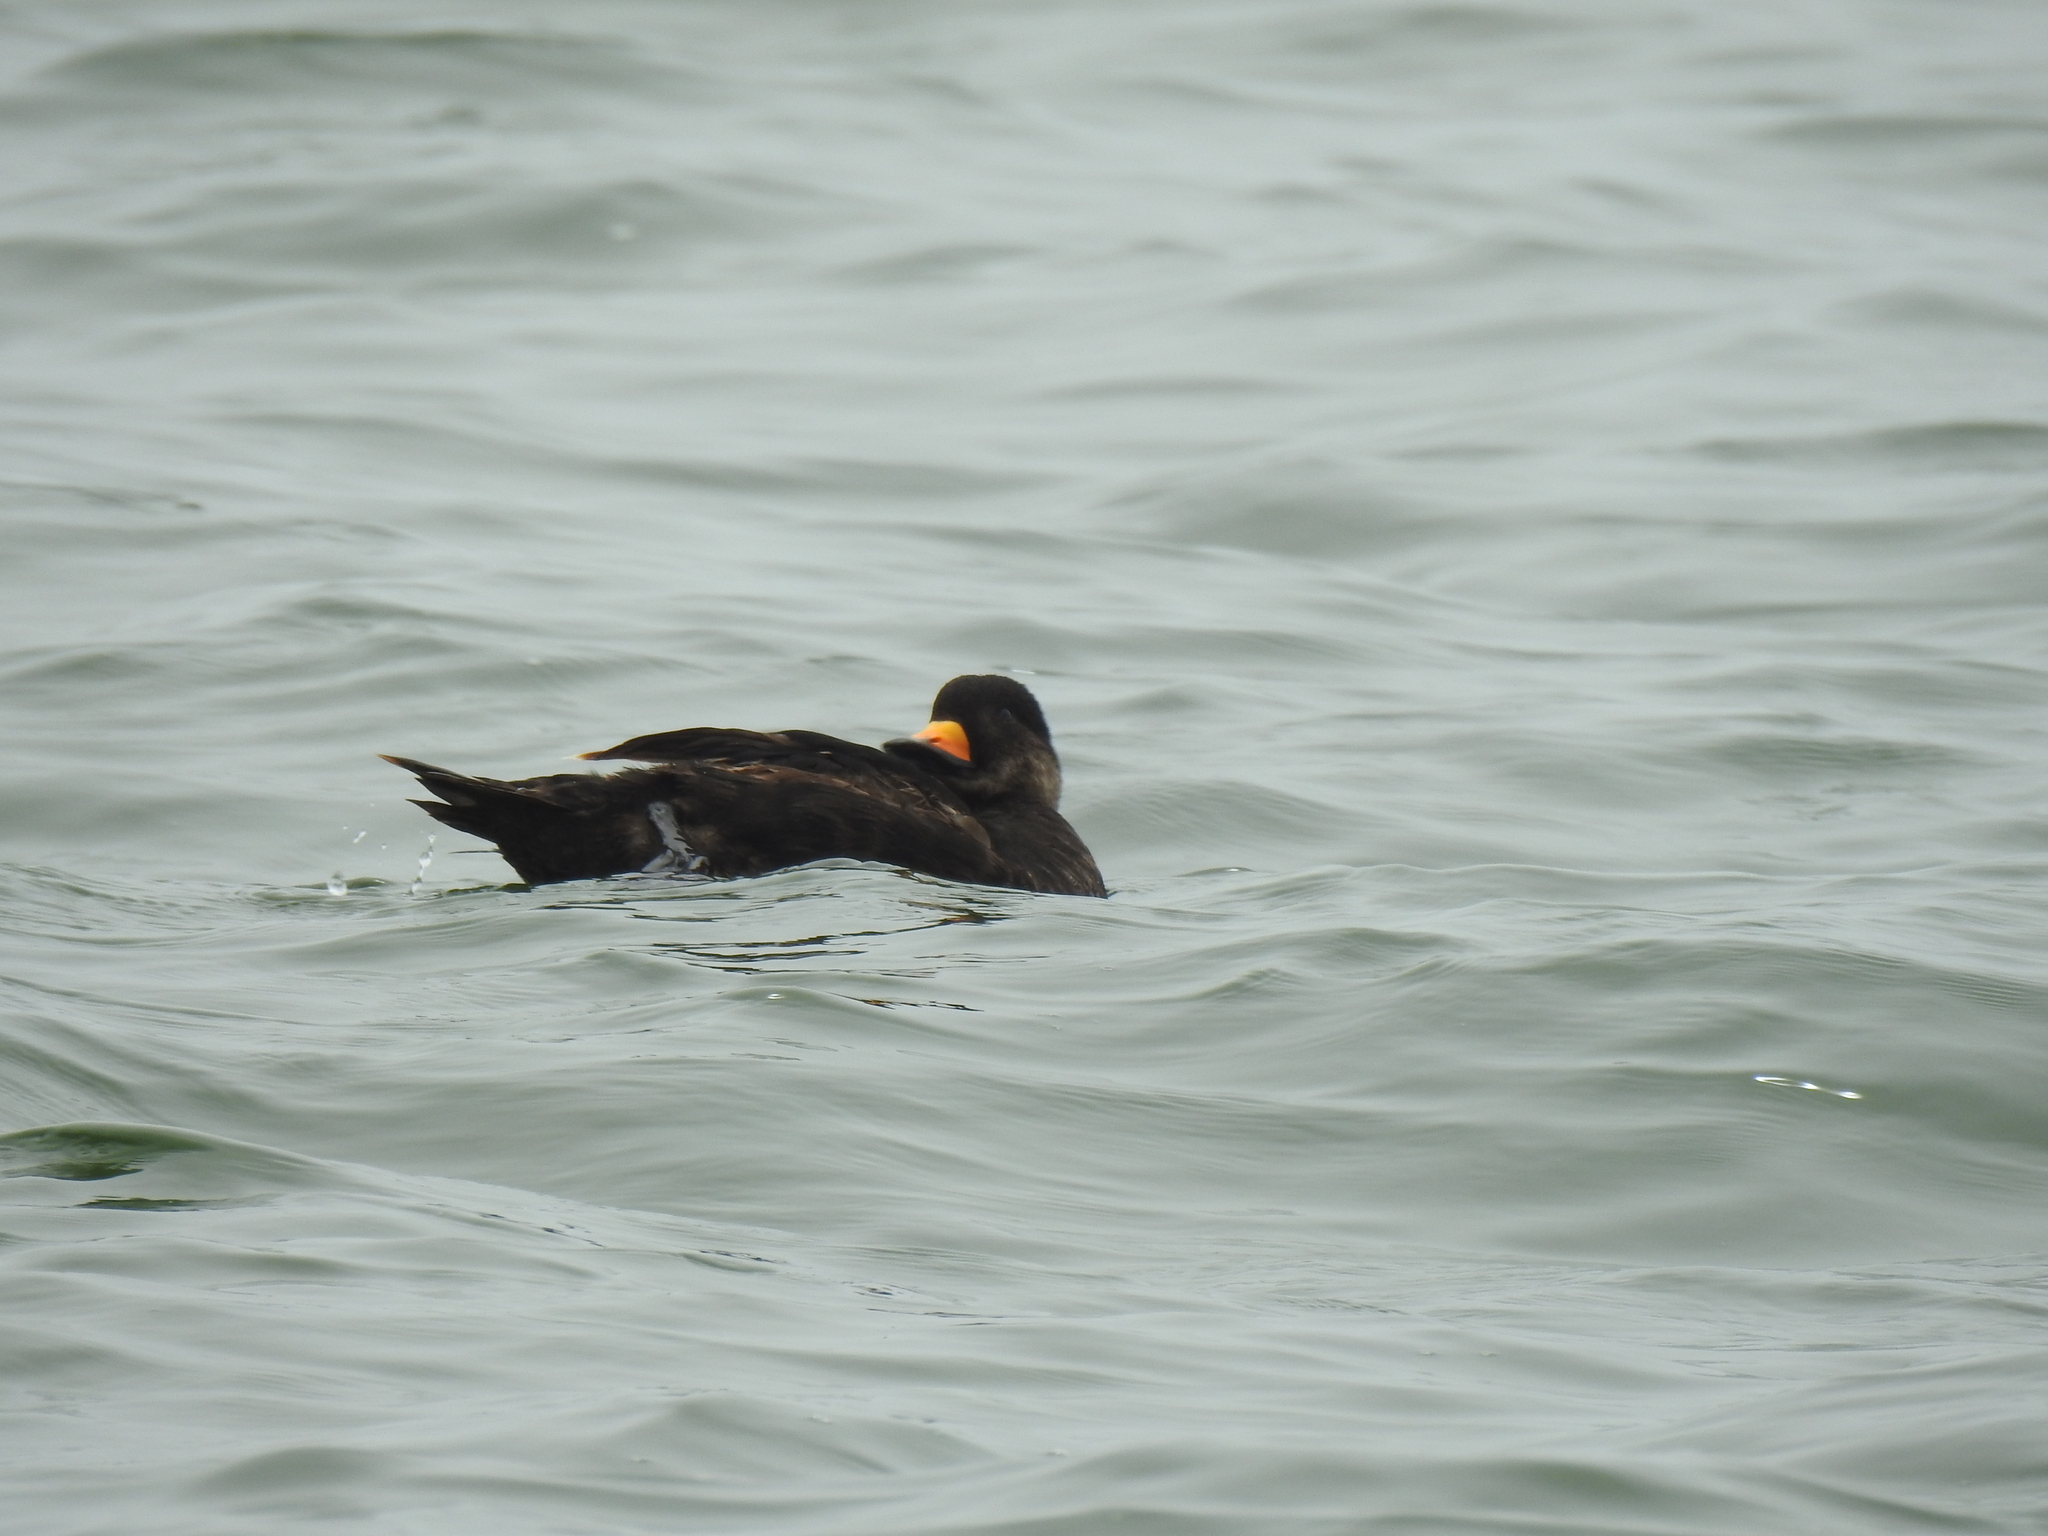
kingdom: Animalia
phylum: Chordata
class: Aves
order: Anseriformes
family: Anatidae
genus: Melanitta
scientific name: Melanitta americana
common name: Black scoter
